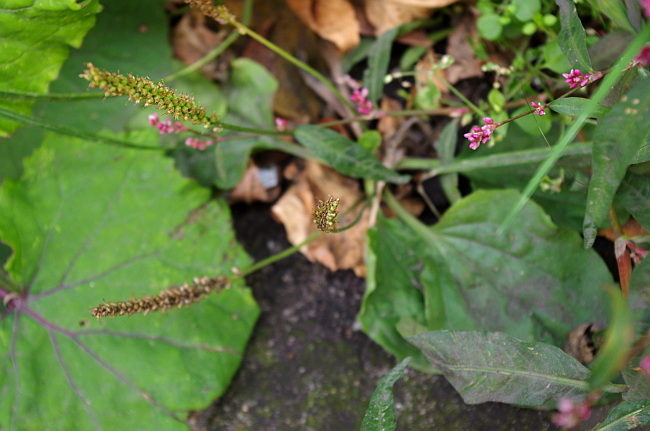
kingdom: Plantae
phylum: Tracheophyta
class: Magnoliopsida
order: Lamiales
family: Plantaginaceae
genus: Plantago
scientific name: Plantago major
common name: Common plantain
